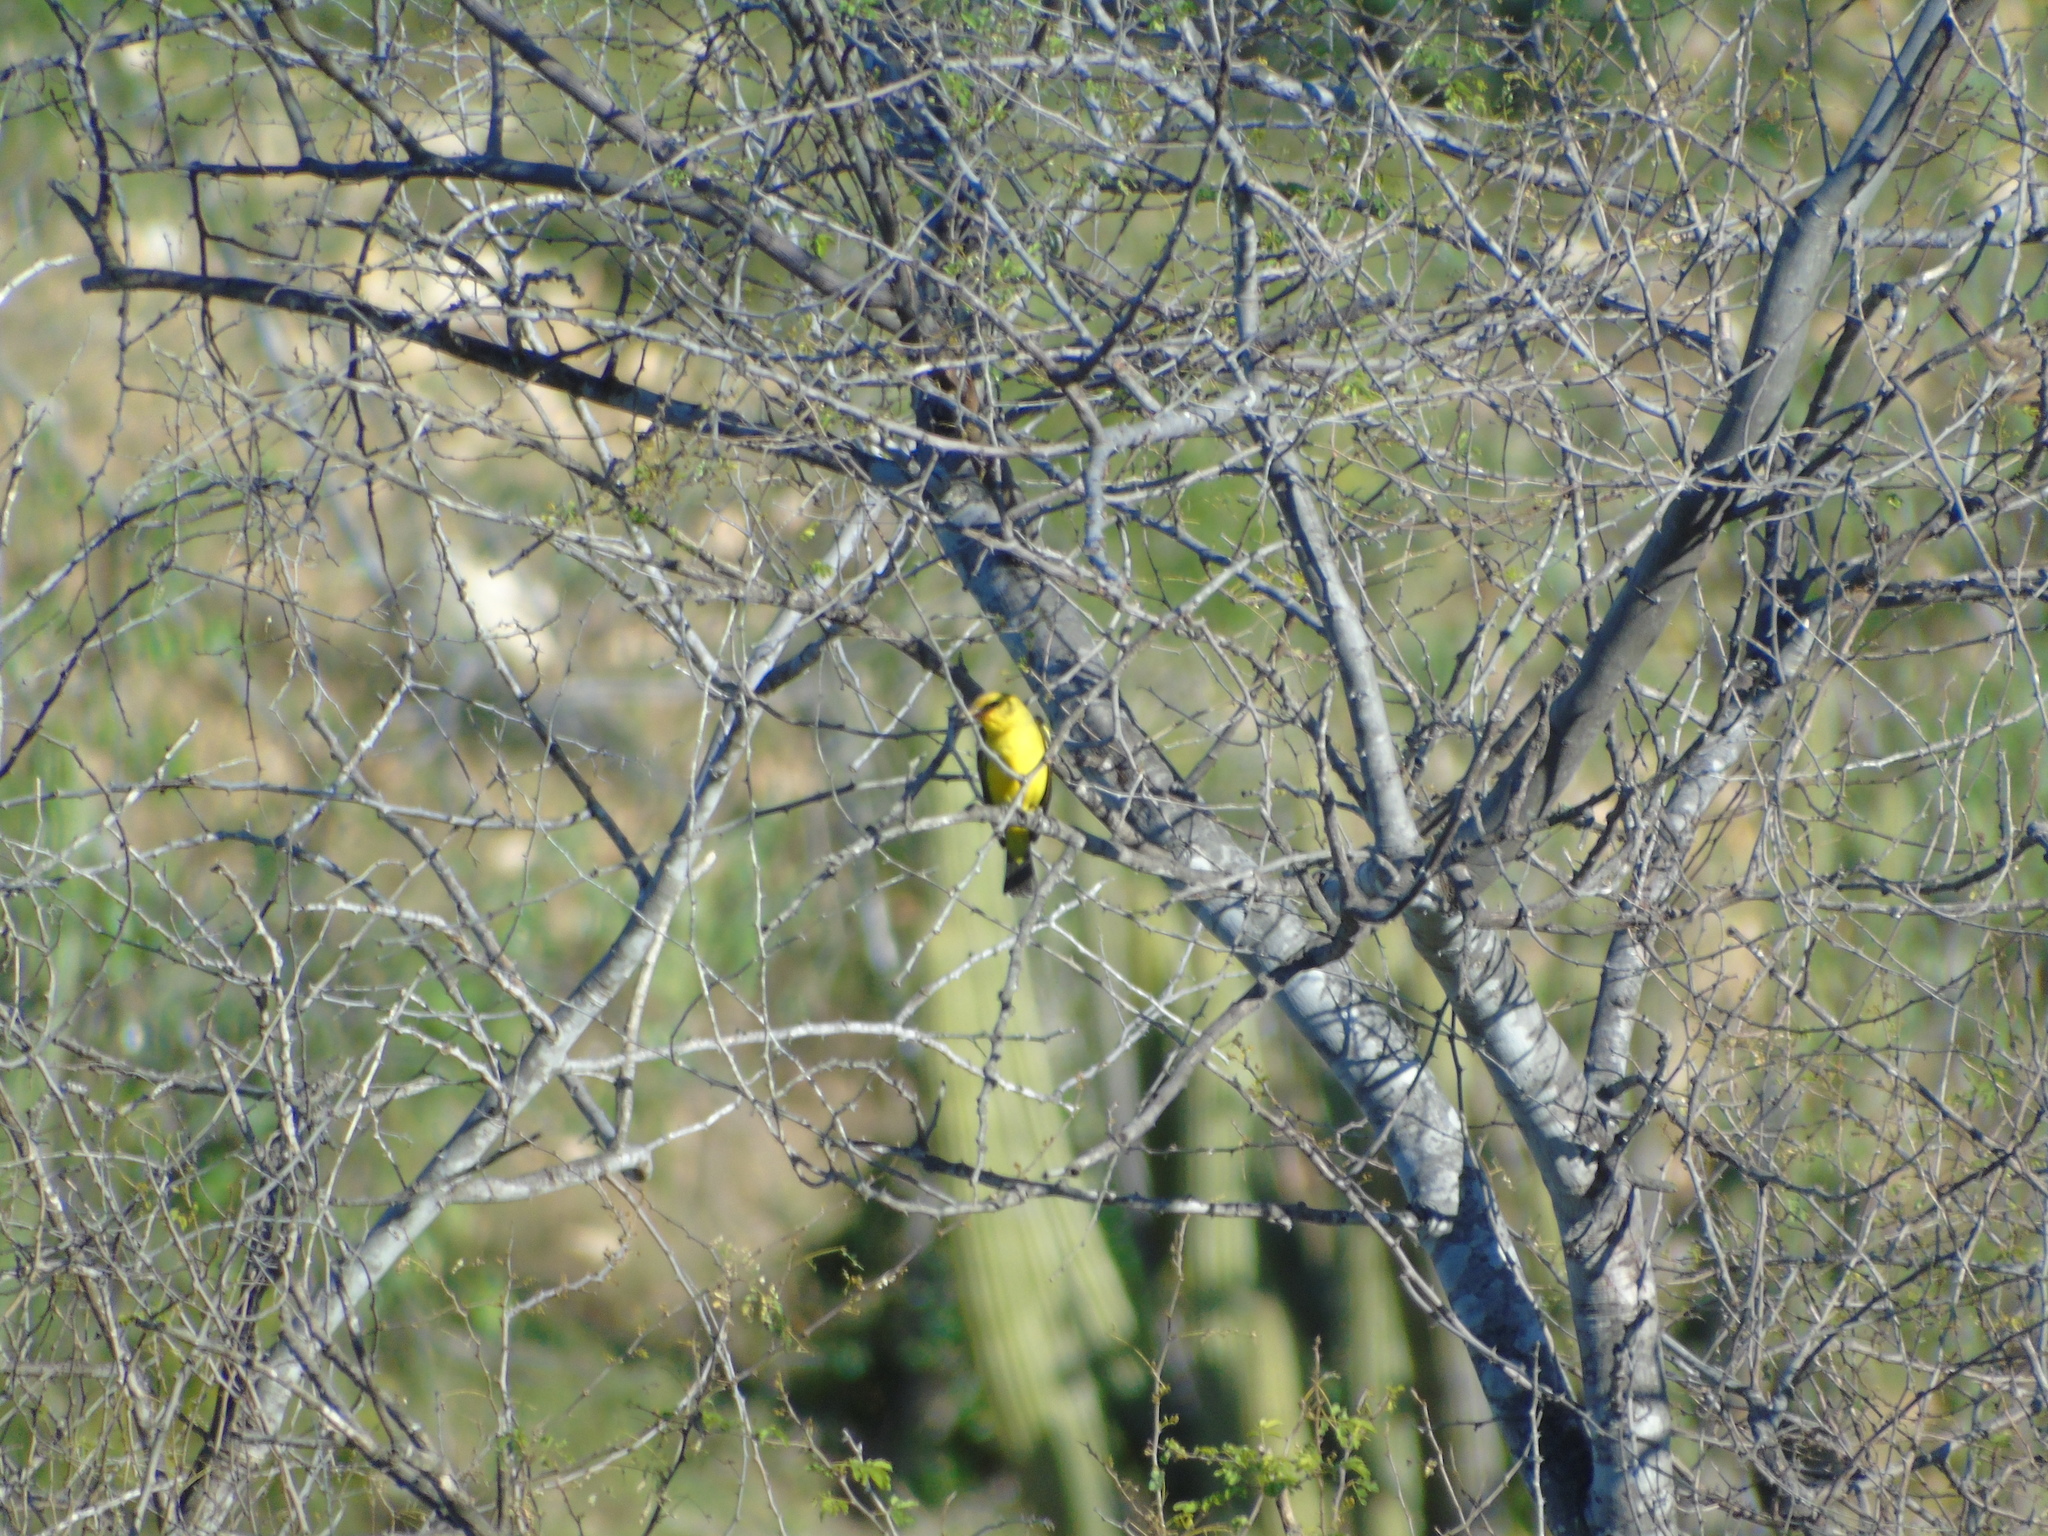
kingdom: Animalia
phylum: Chordata
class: Aves
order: Passeriformes
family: Cardinalidae
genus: Piranga
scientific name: Piranga ludoviciana
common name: Western tanager
